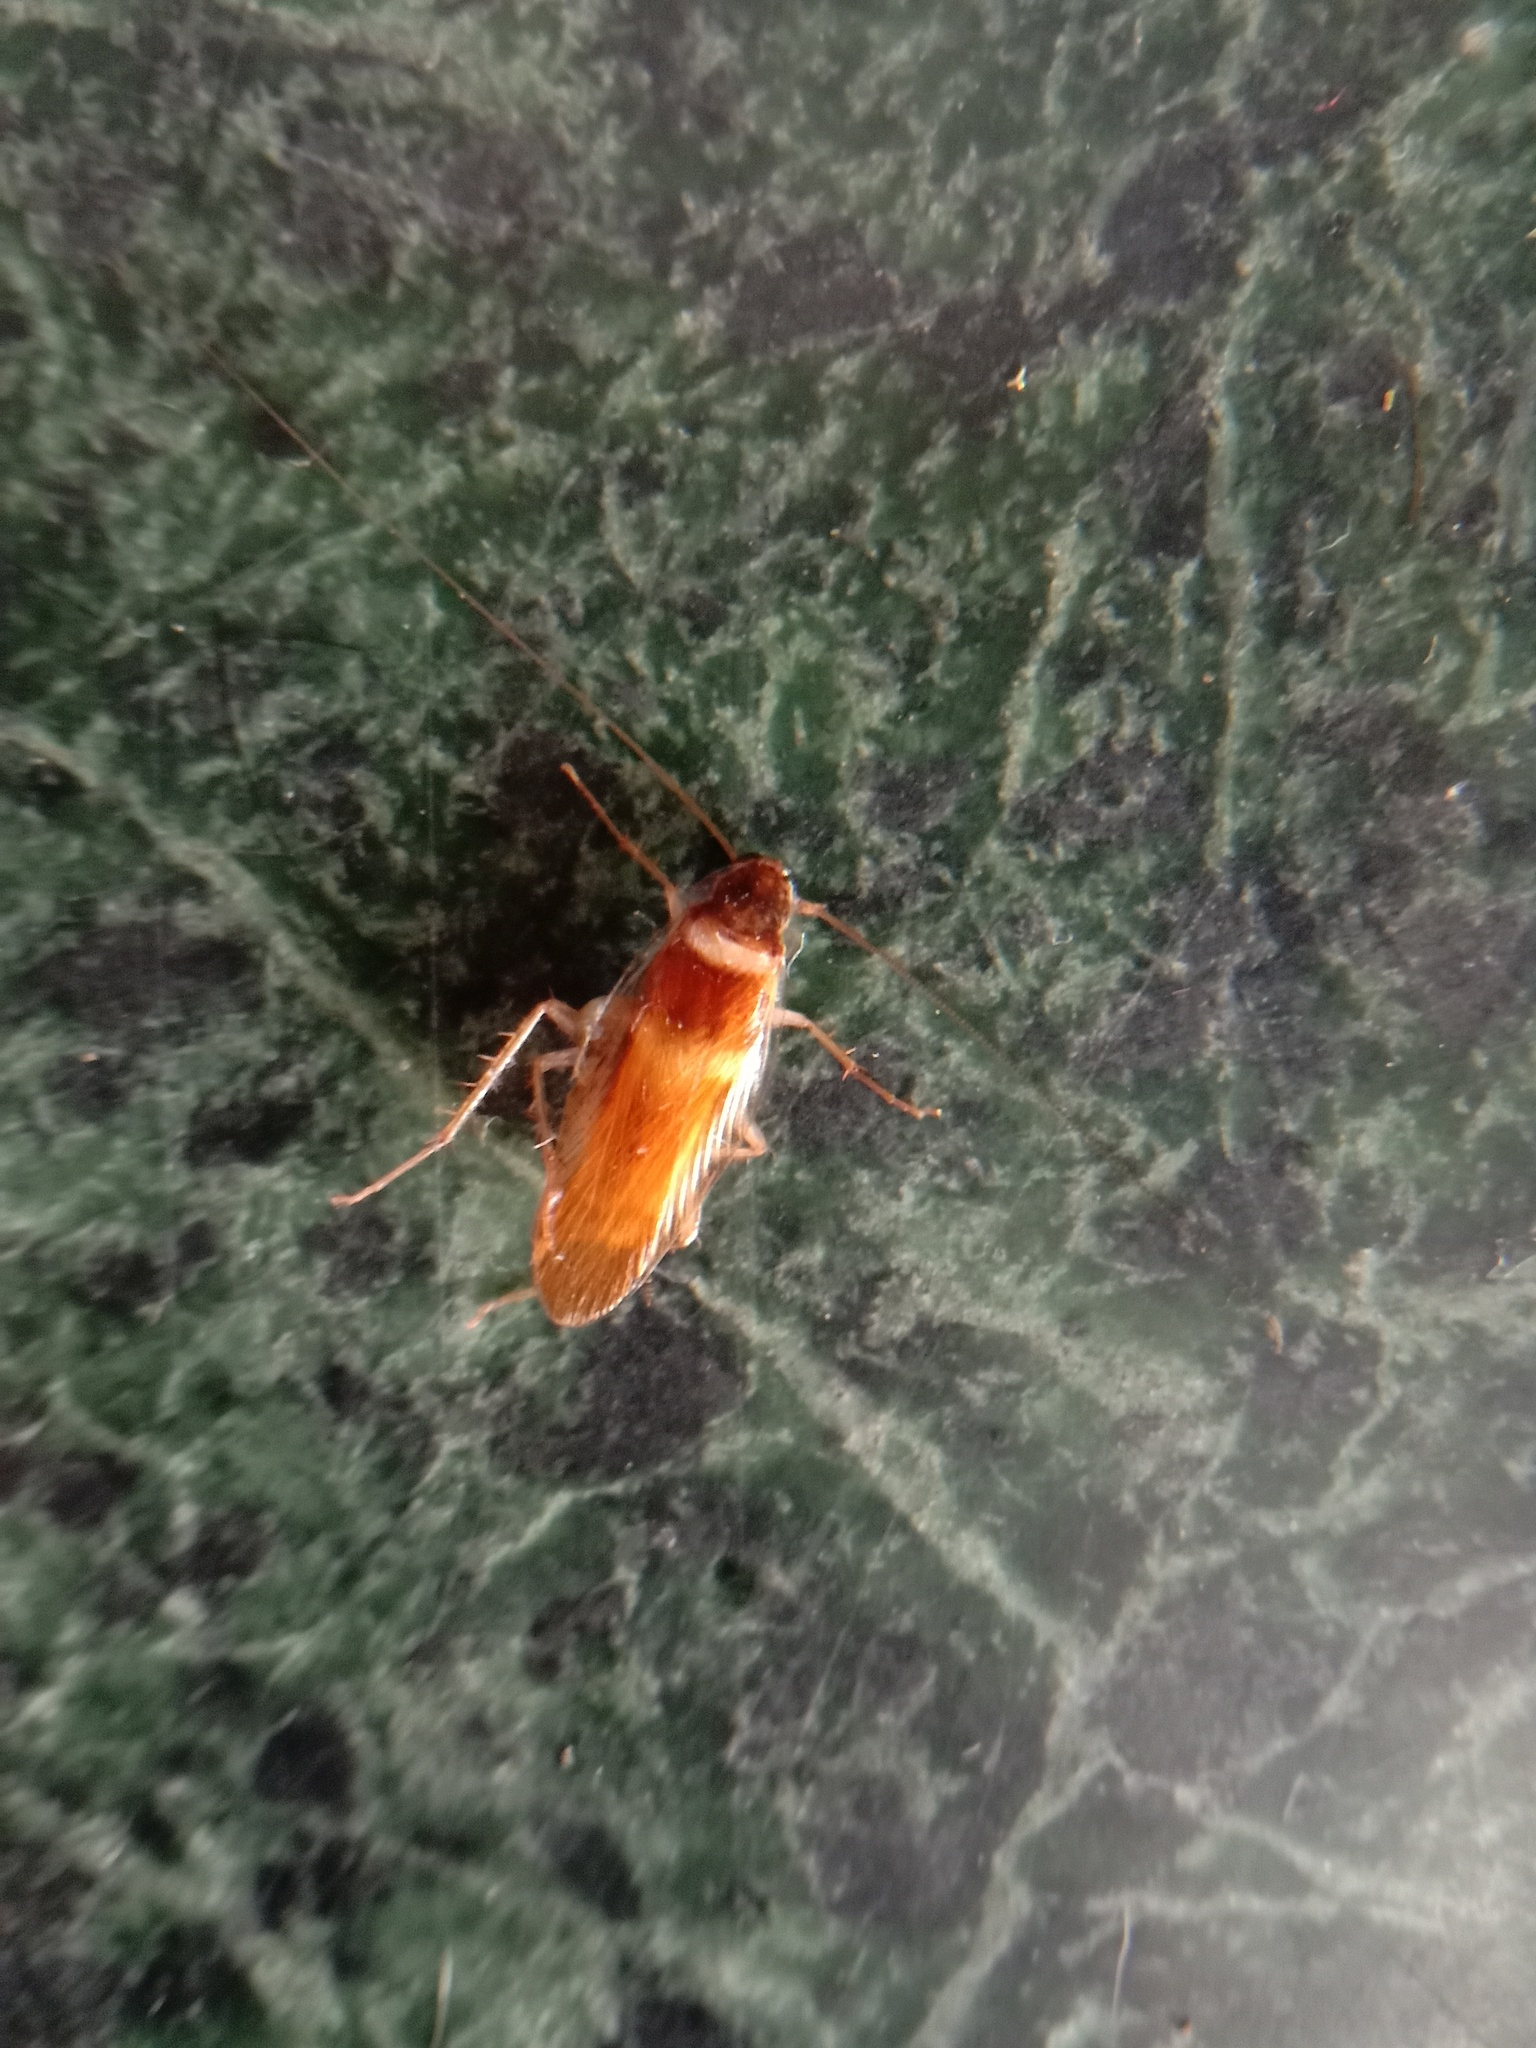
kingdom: Animalia
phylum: Arthropoda
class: Insecta
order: Blattodea
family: Ectobiidae
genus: Supella
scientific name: Supella longipalpa
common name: Brown-banded cockroach
